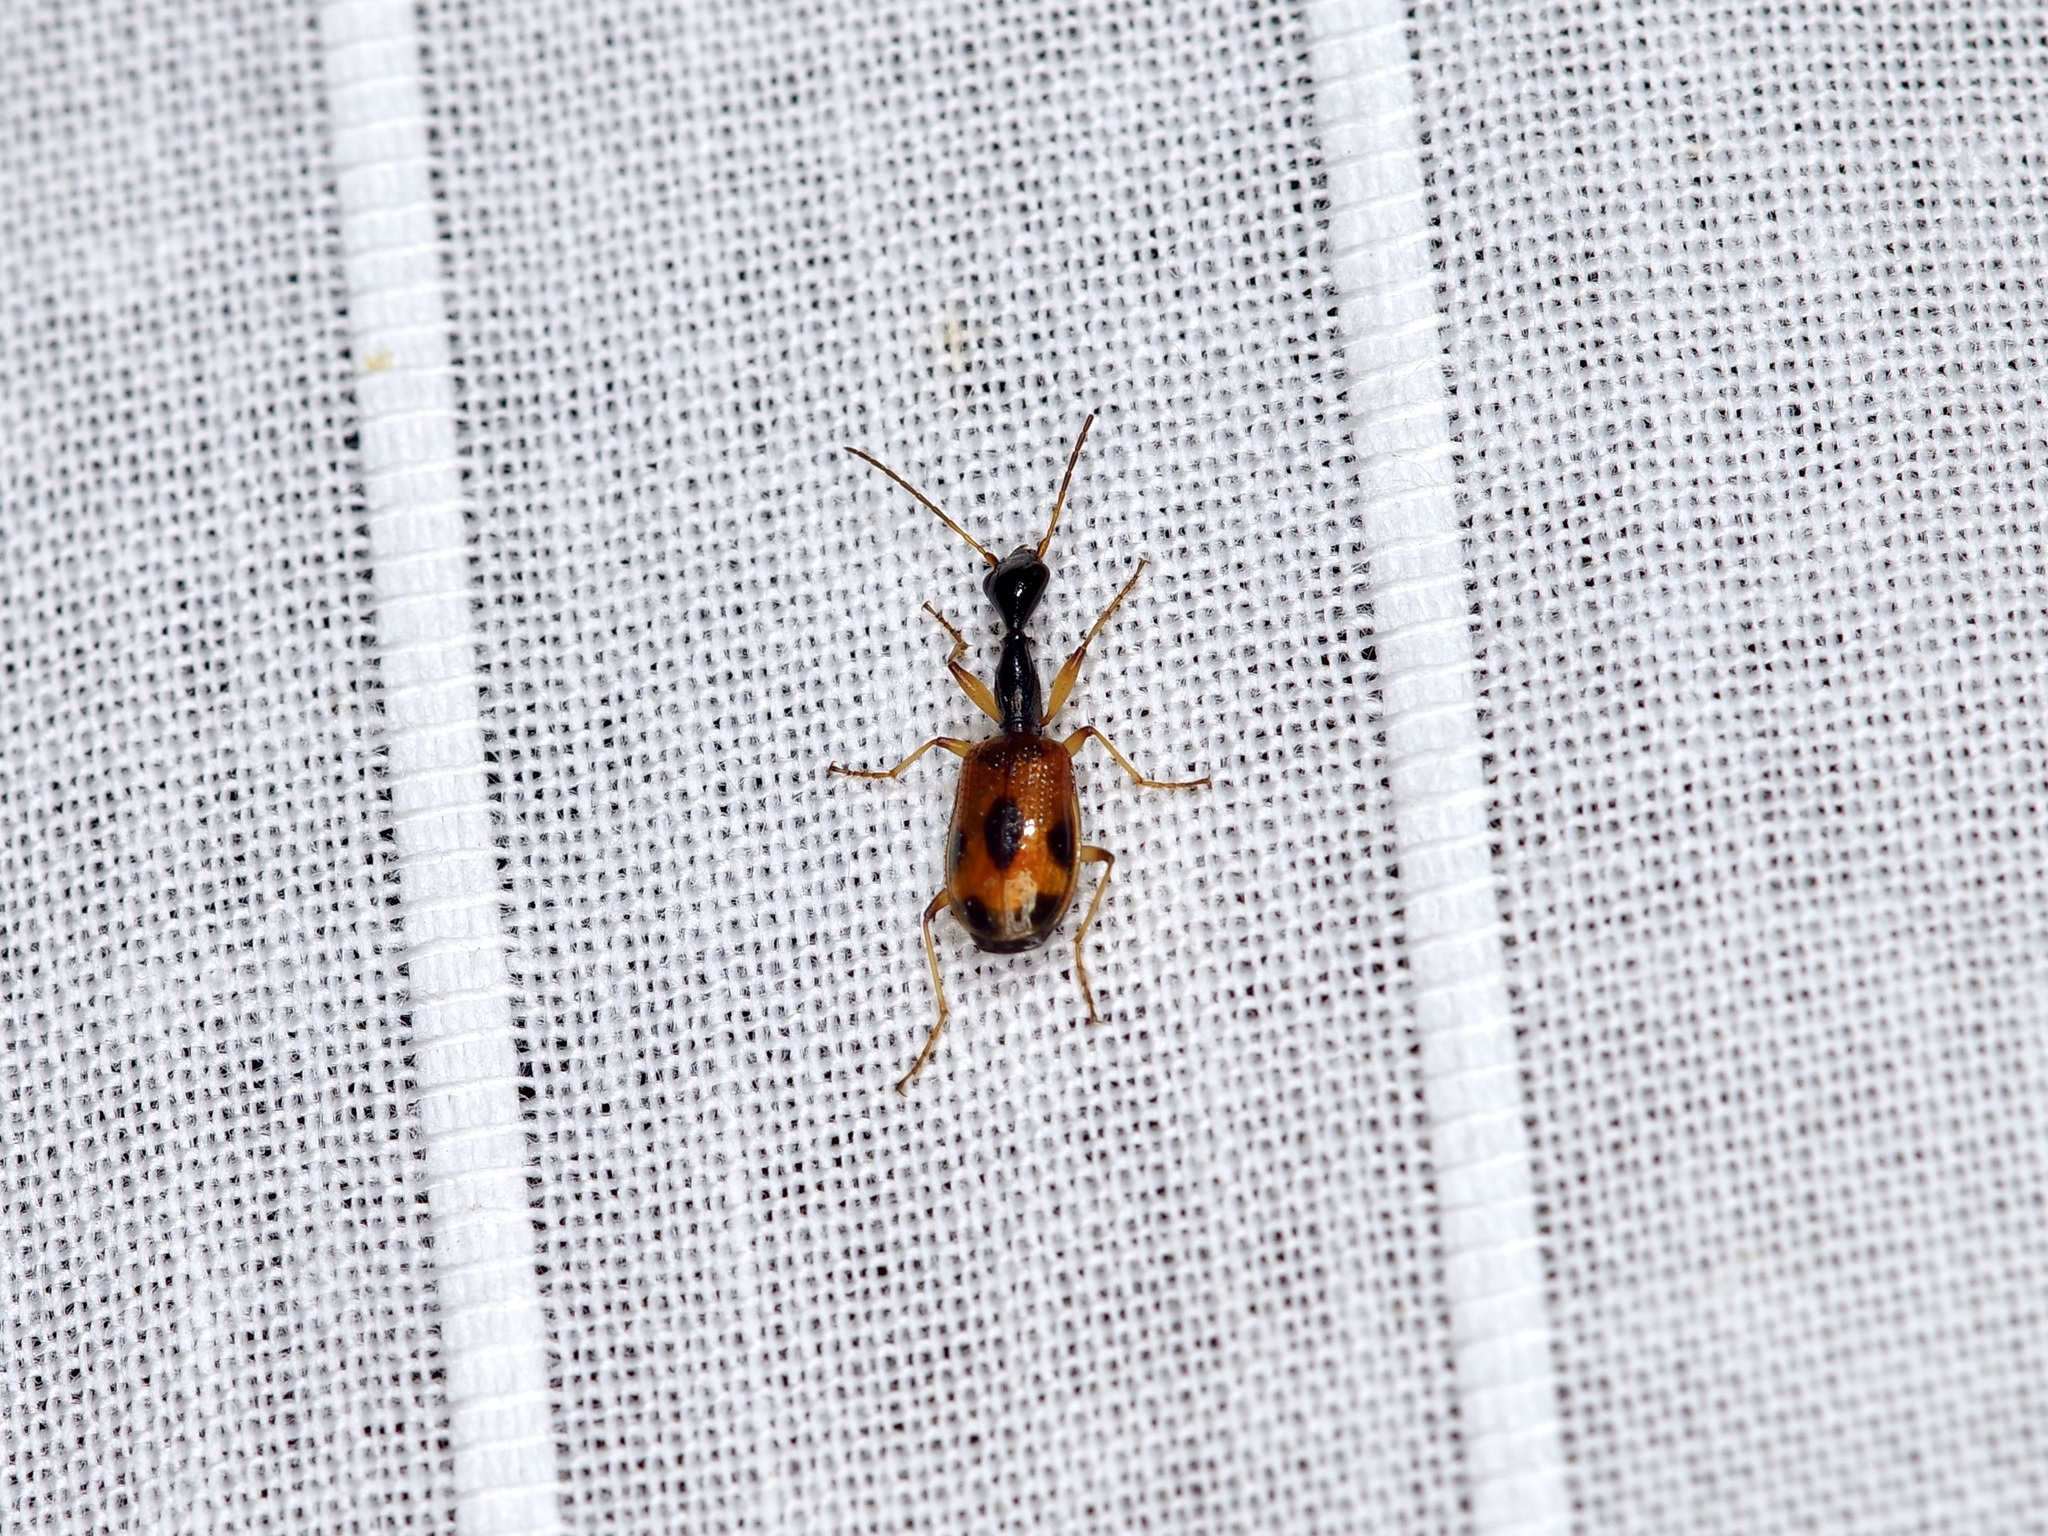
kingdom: Animalia
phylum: Arthropoda
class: Insecta
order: Coleoptera
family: Carabidae
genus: Colliuris
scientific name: Colliuris pensylvanica
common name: Long-necked ground beetle
